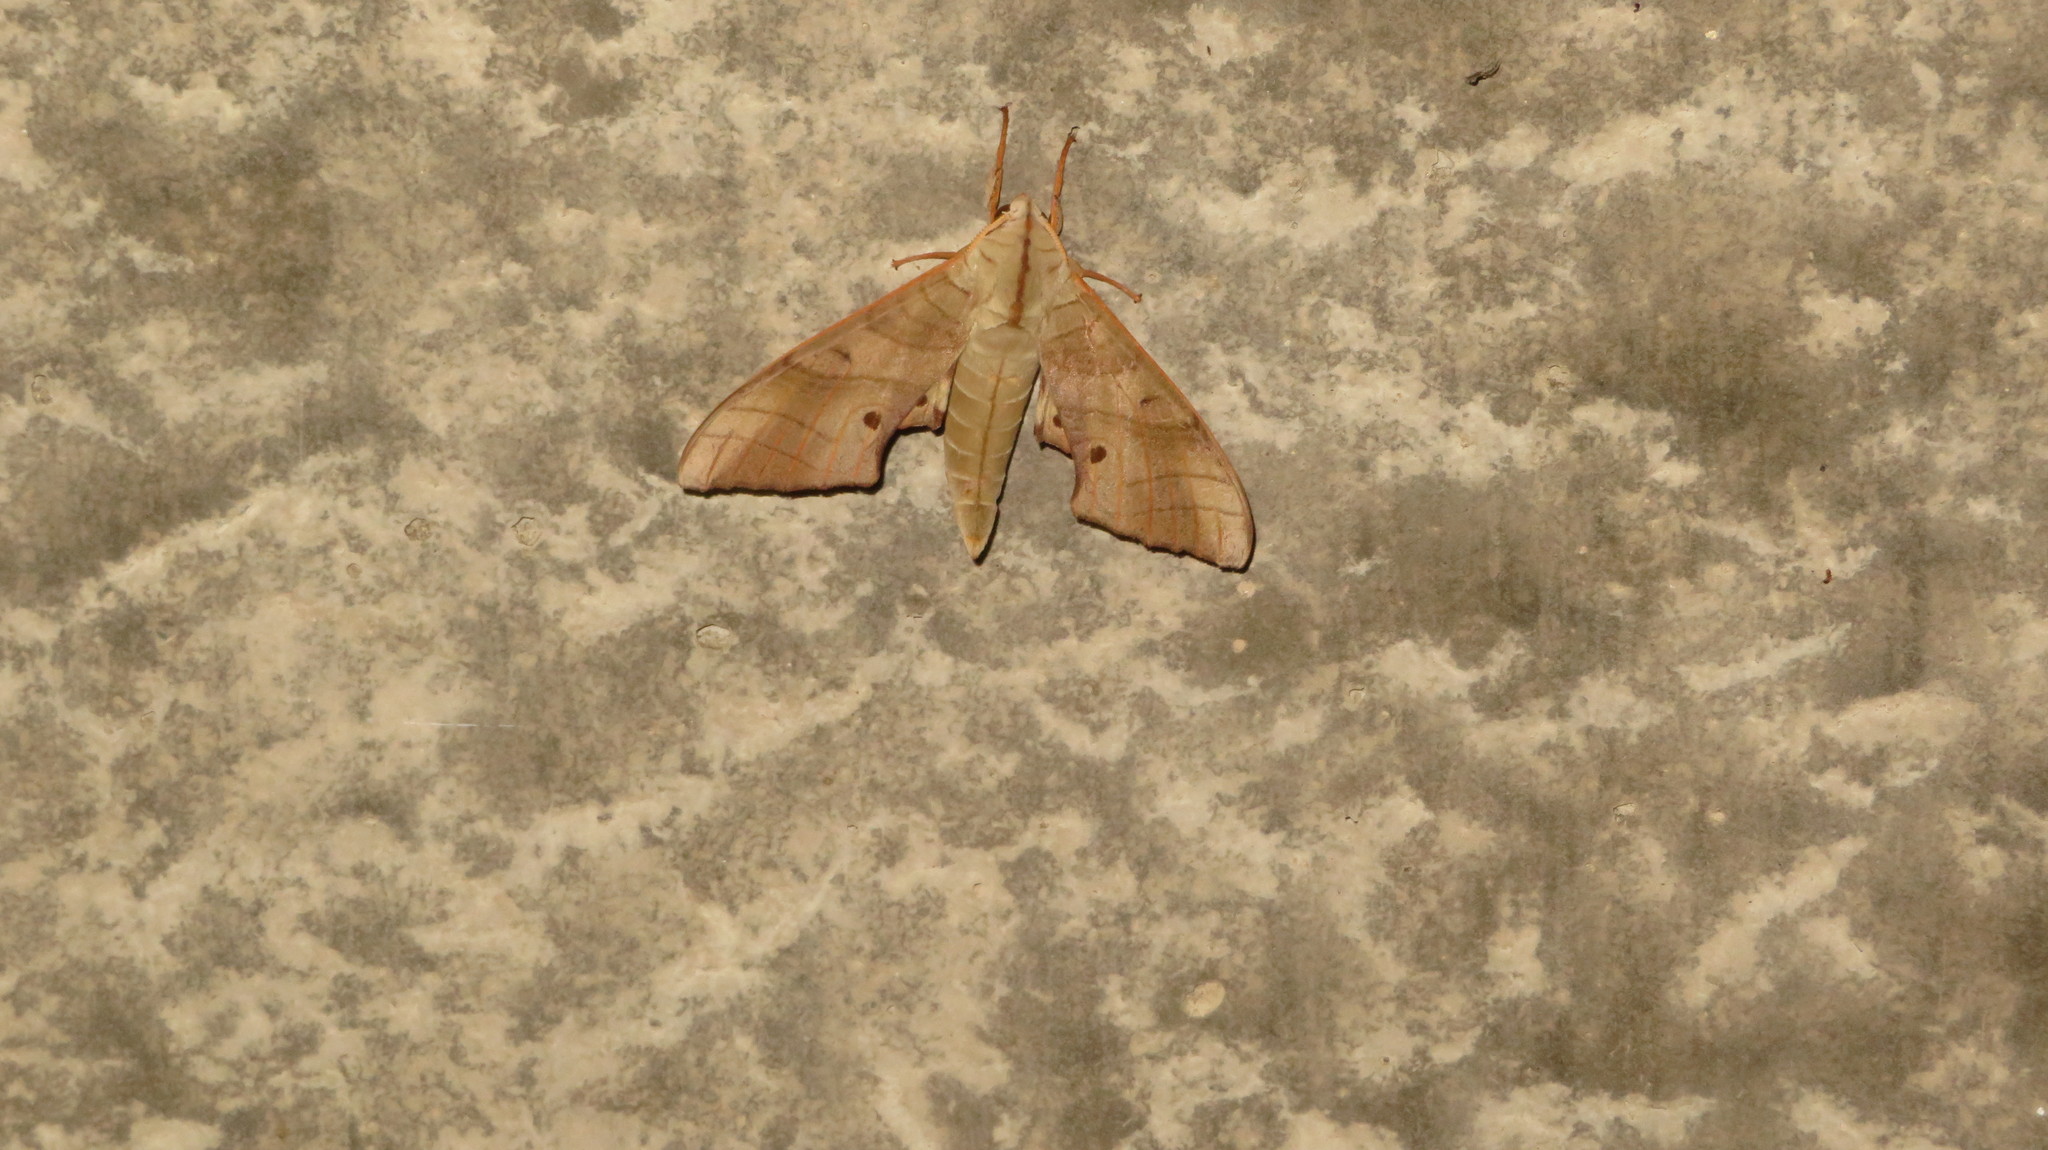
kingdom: Animalia
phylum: Arthropoda
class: Insecta
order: Lepidoptera
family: Sphingidae
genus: Marumba
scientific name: Marumba sperchius
